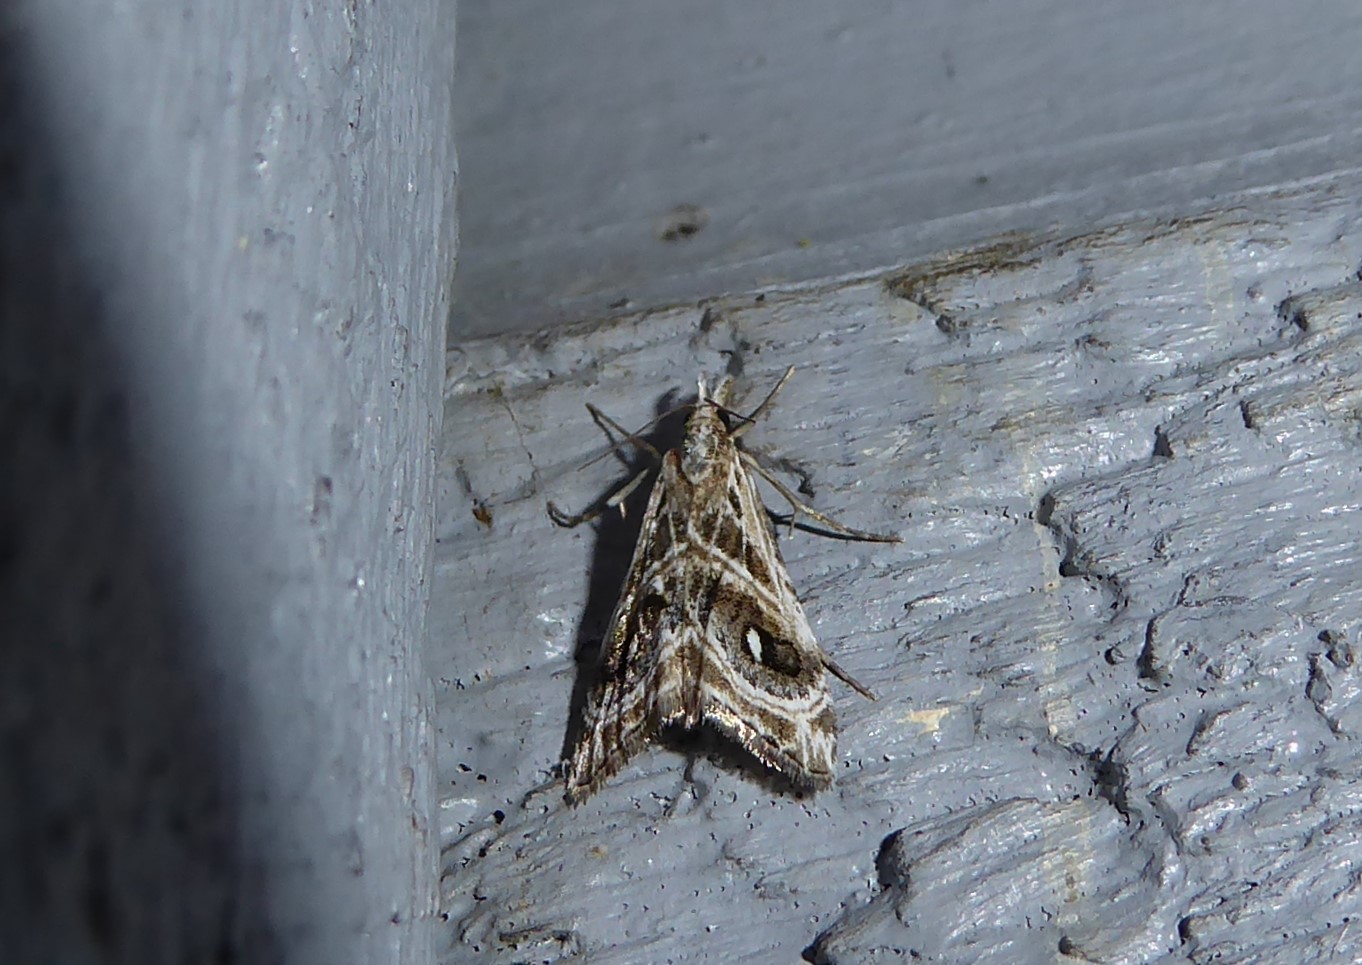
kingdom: Animalia
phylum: Arthropoda
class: Insecta
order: Lepidoptera
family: Crambidae
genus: Gadira
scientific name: Gadira acerella
